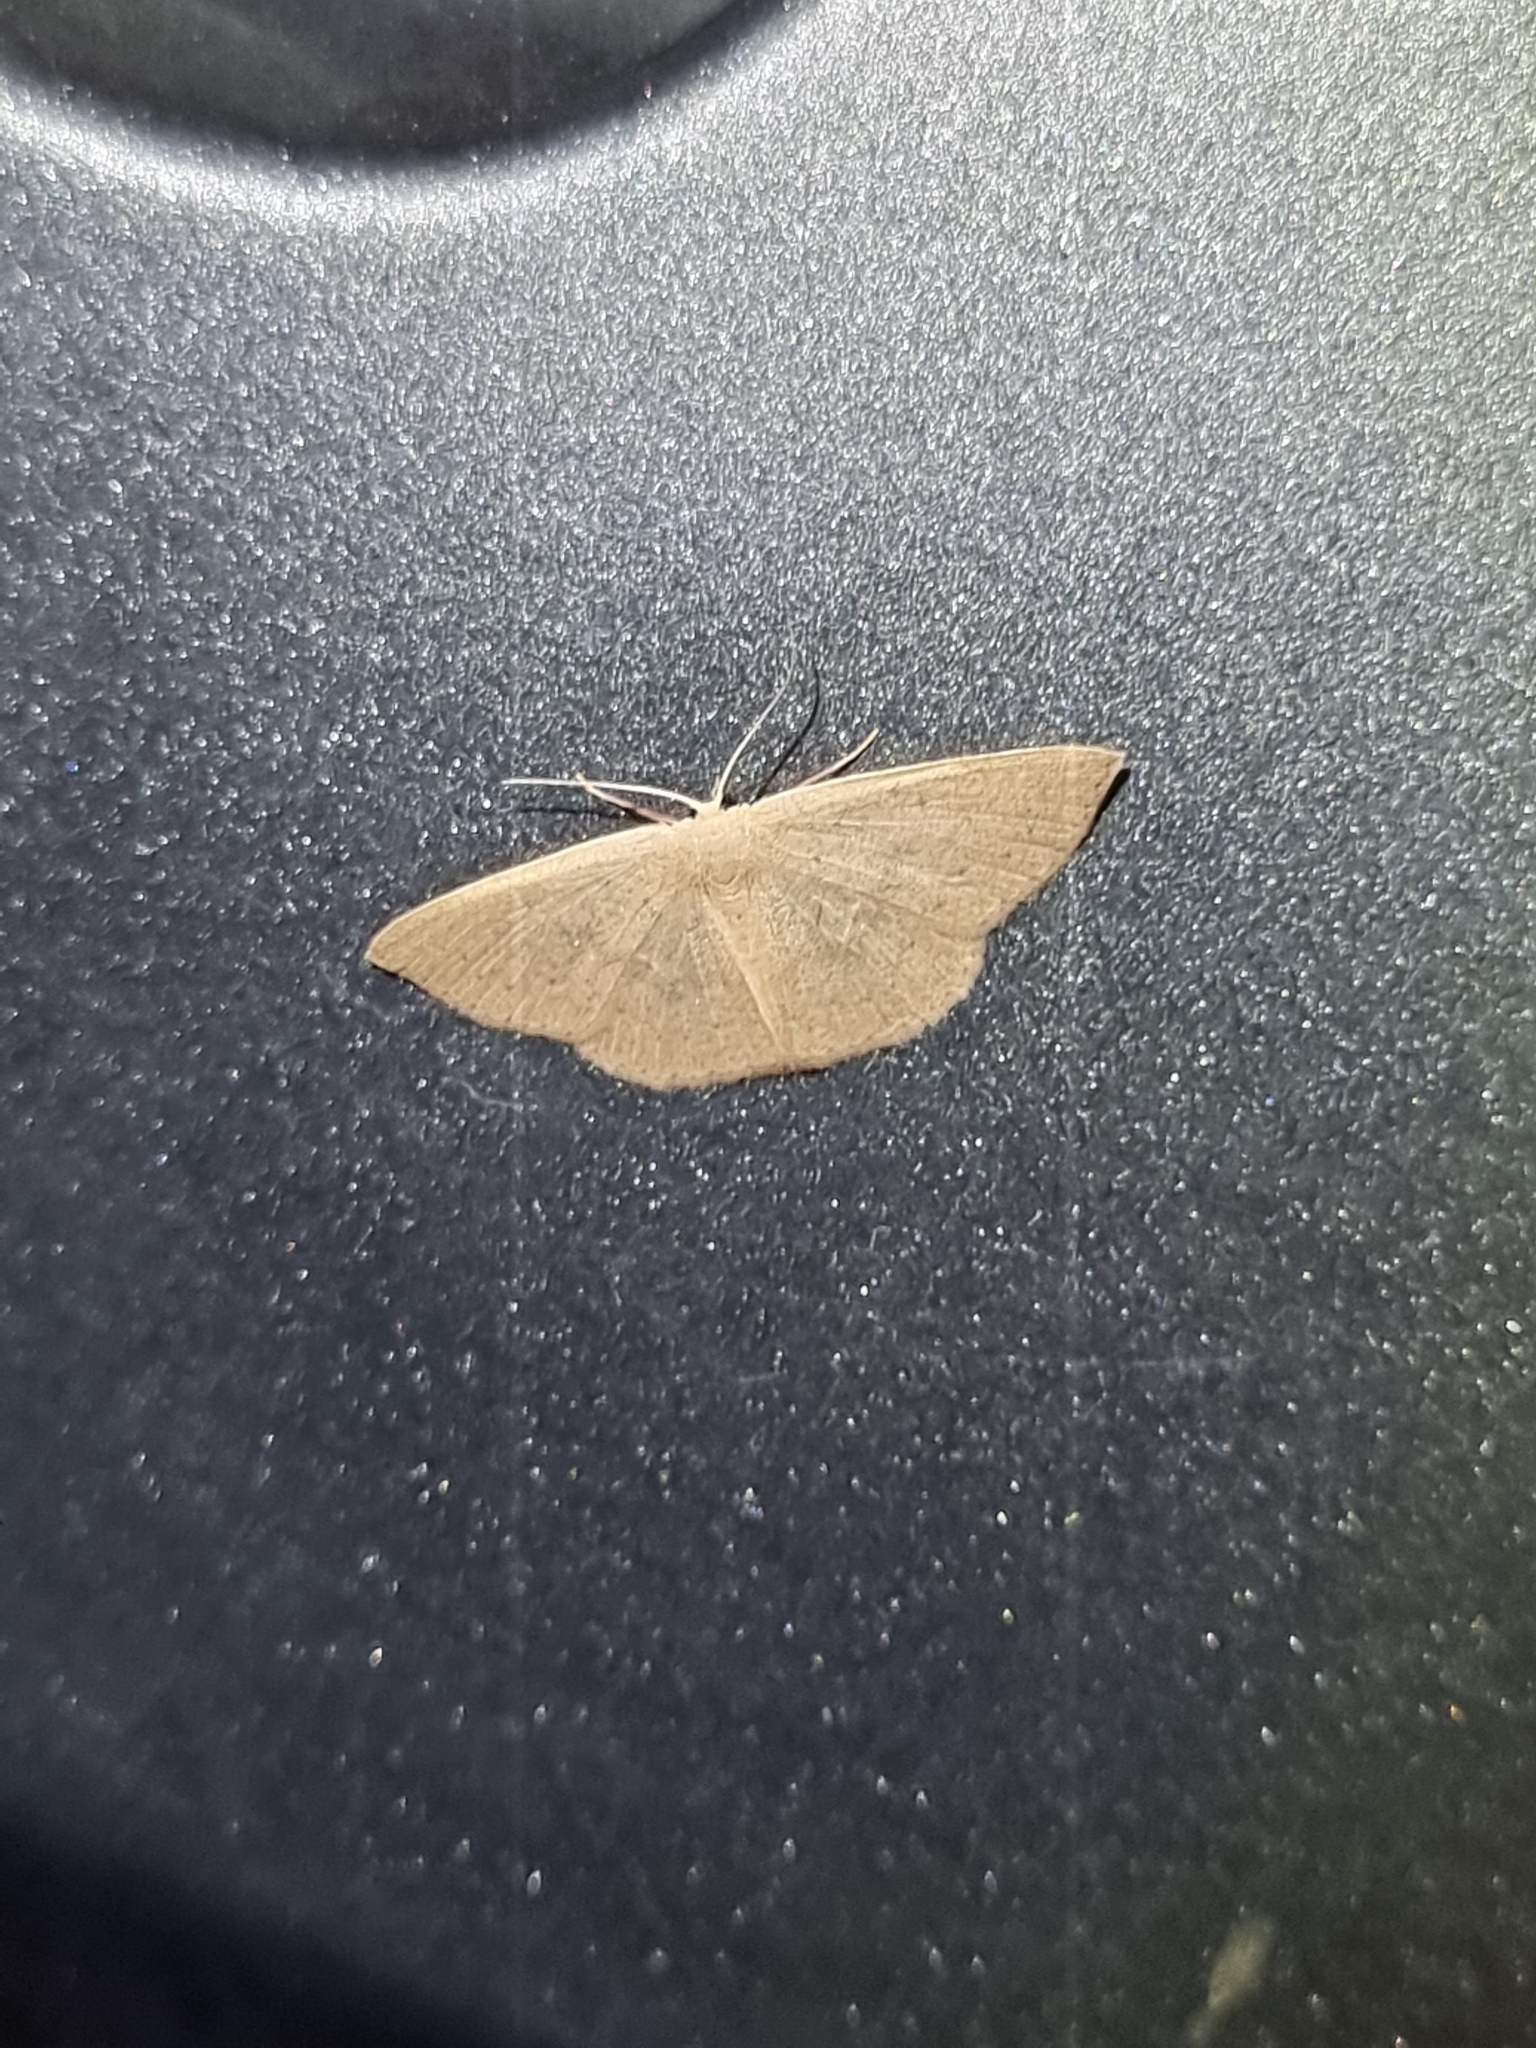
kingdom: Animalia
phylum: Arthropoda
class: Insecta
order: Lepidoptera
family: Geometridae
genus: Cyclophora
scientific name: Cyclophora obstataria
